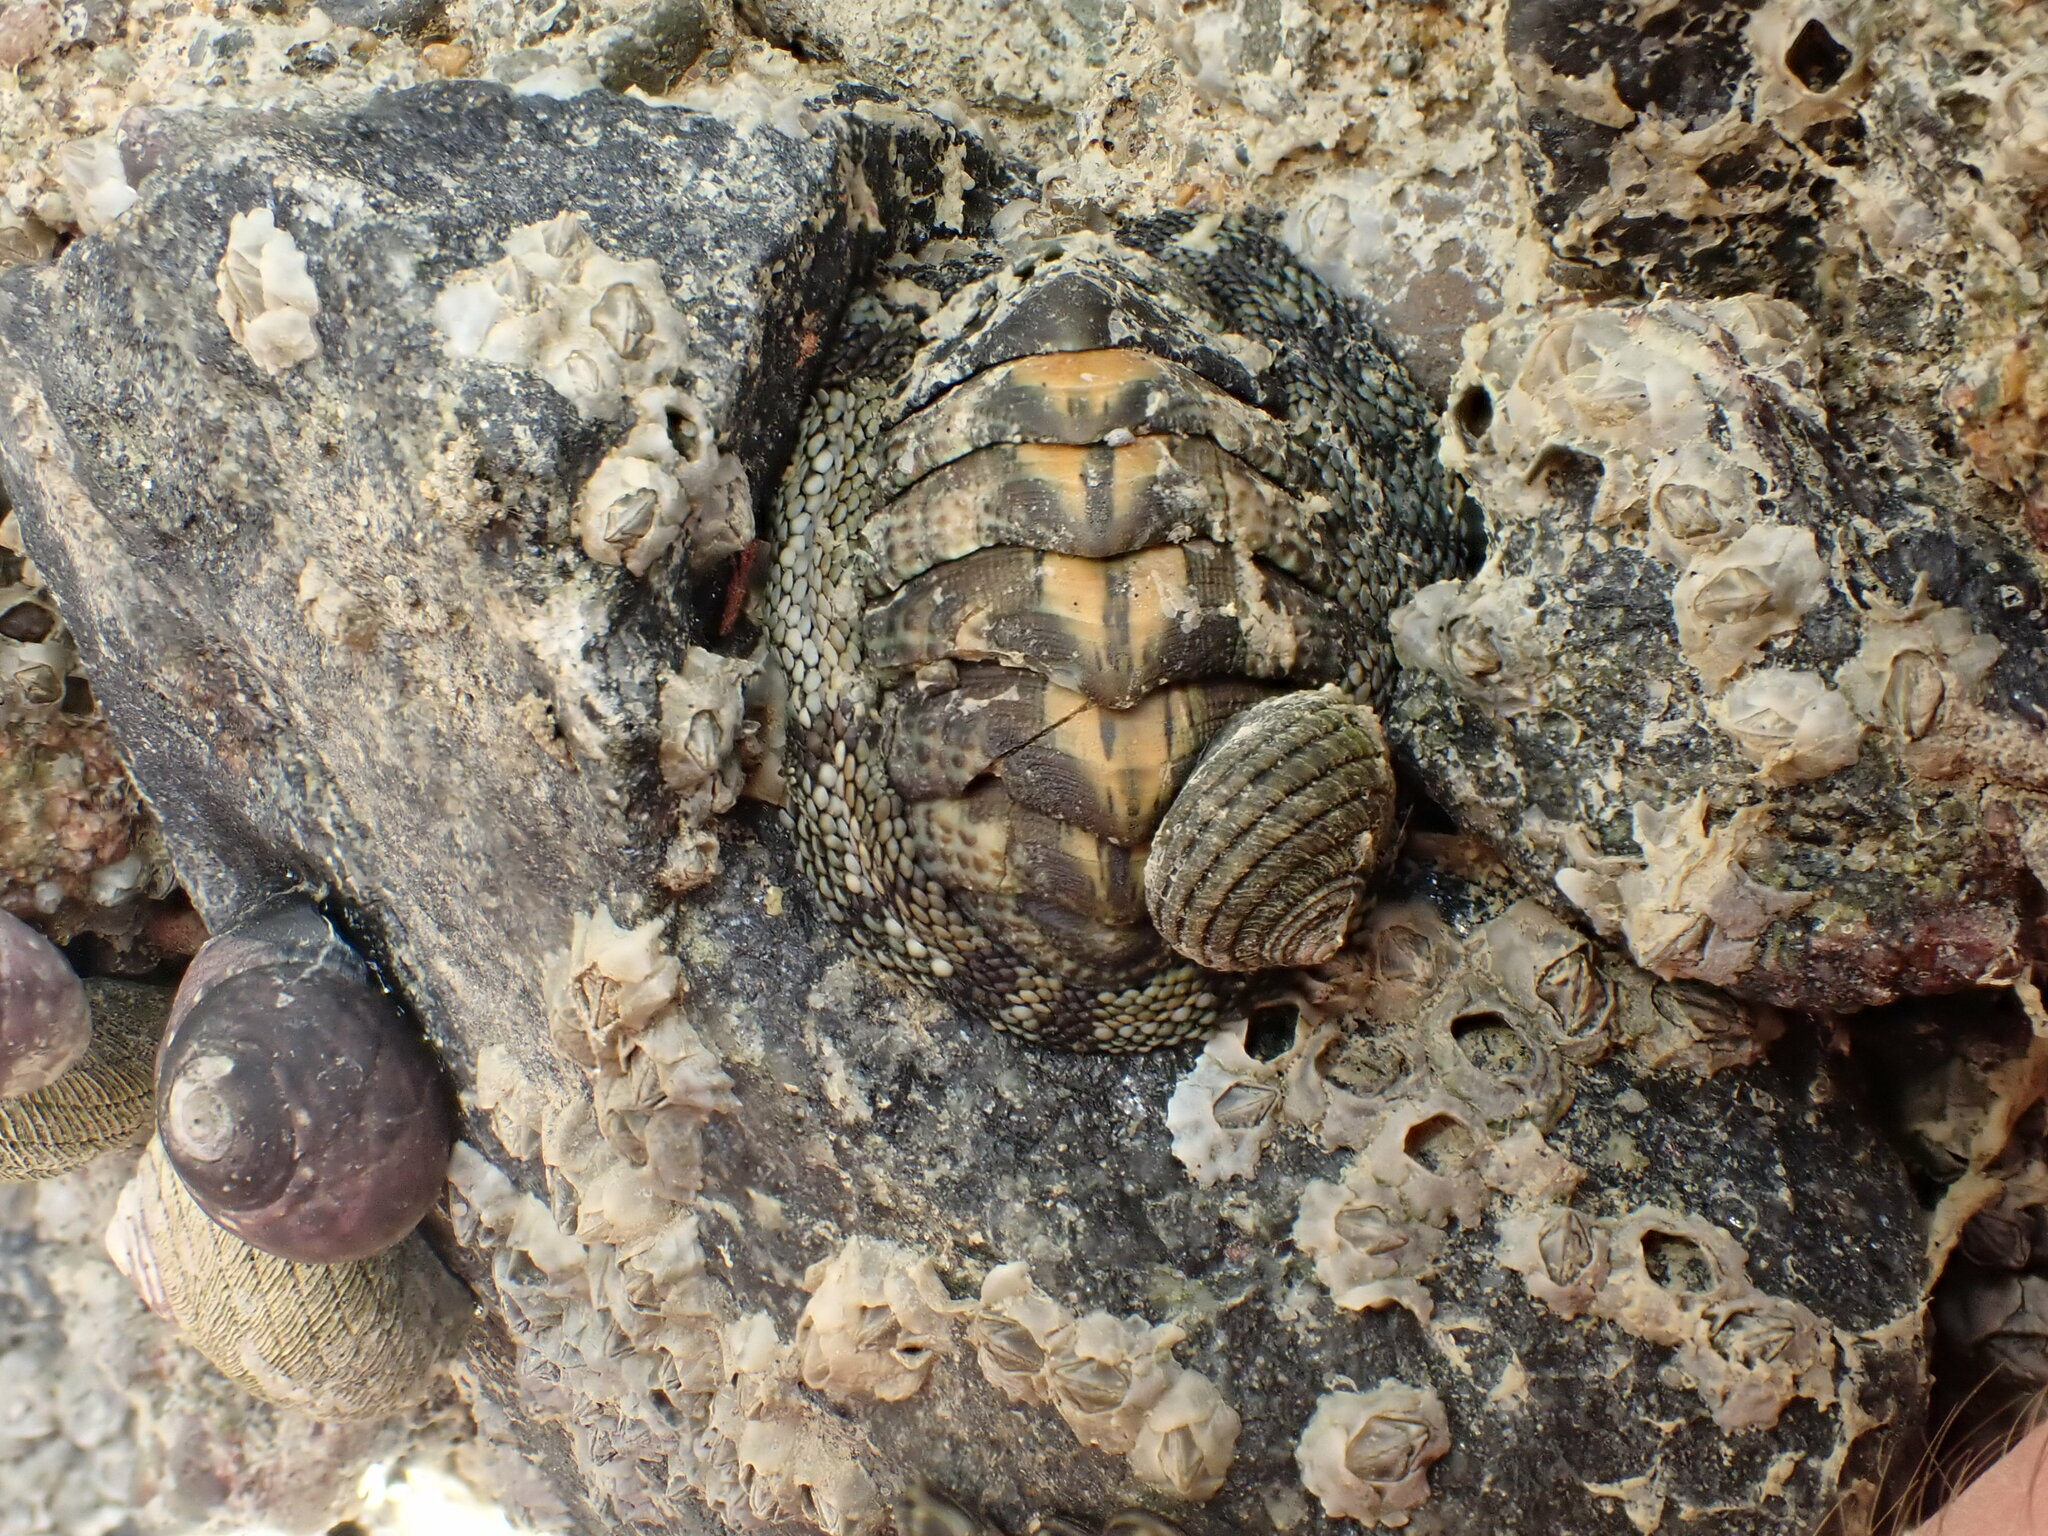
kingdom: Animalia
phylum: Mollusca
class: Polyplacophora
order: Chitonida
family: Chitonidae
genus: Sypharochiton
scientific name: Sypharochiton pelliserpentis
